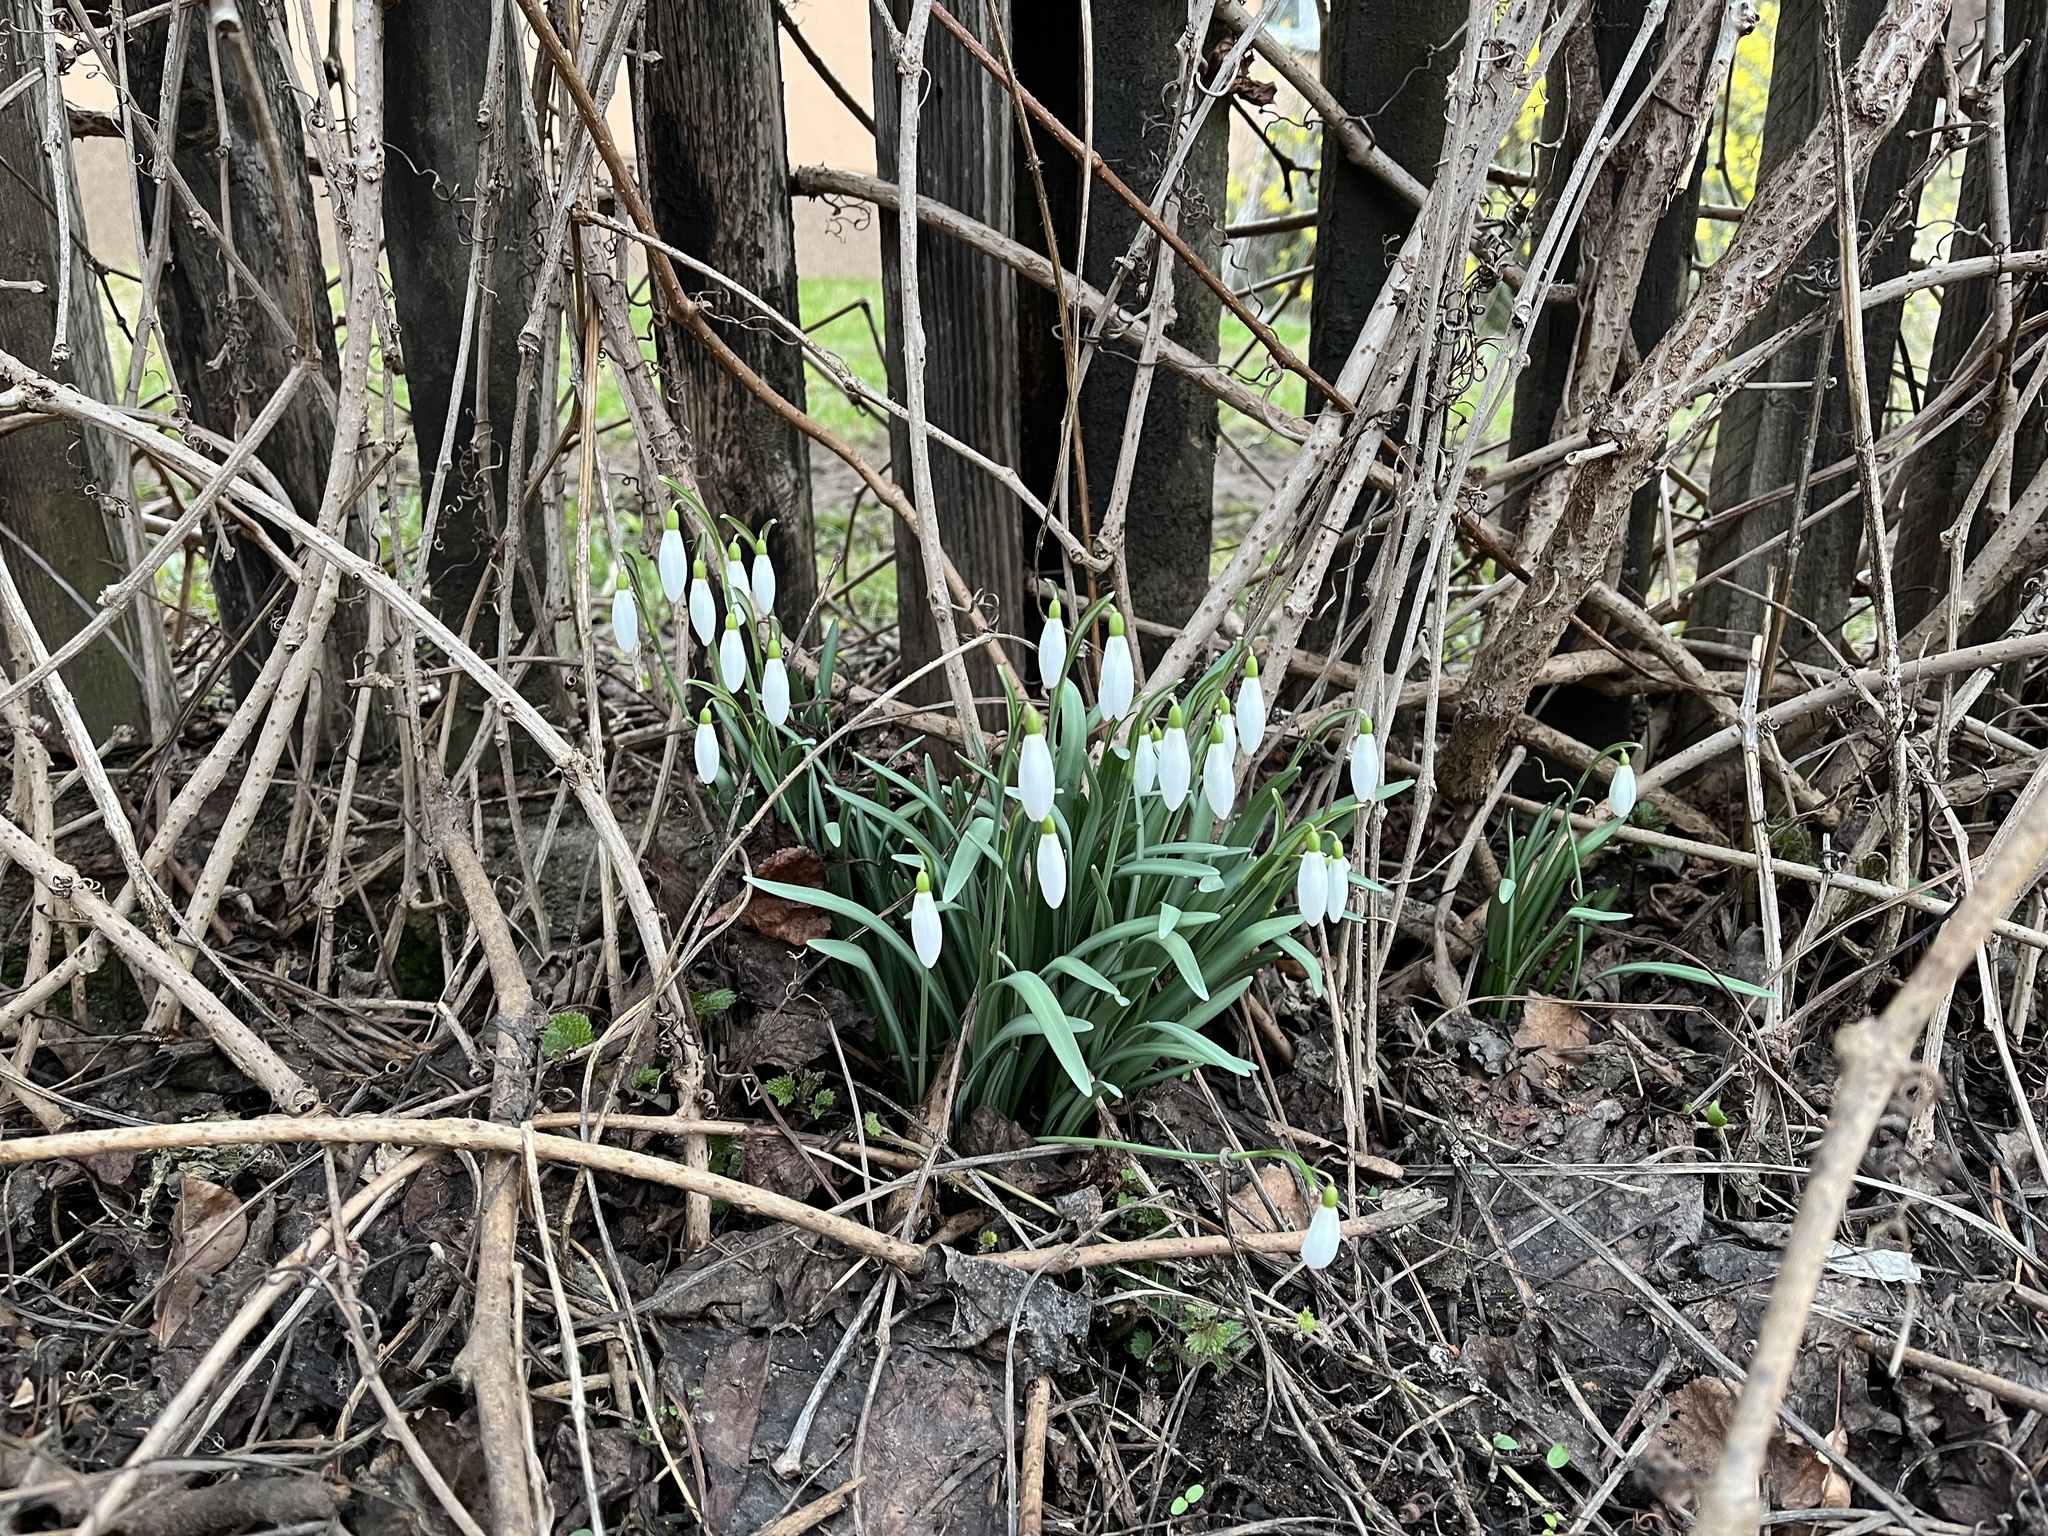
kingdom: Plantae
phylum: Tracheophyta
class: Liliopsida
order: Asparagales
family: Amaryllidaceae
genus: Galanthus
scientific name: Galanthus nivalis
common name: Snowdrop
